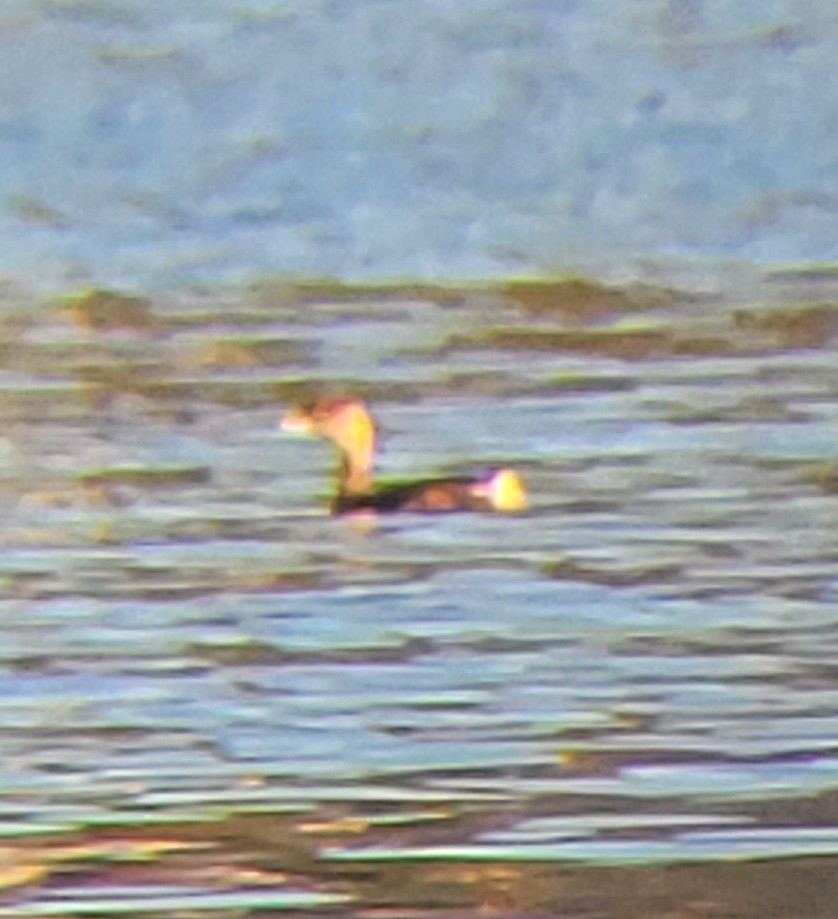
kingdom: Animalia
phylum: Chordata
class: Aves
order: Podicipediformes
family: Podicipedidae
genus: Podilymbus
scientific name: Podilymbus podiceps
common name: Pied-billed grebe
